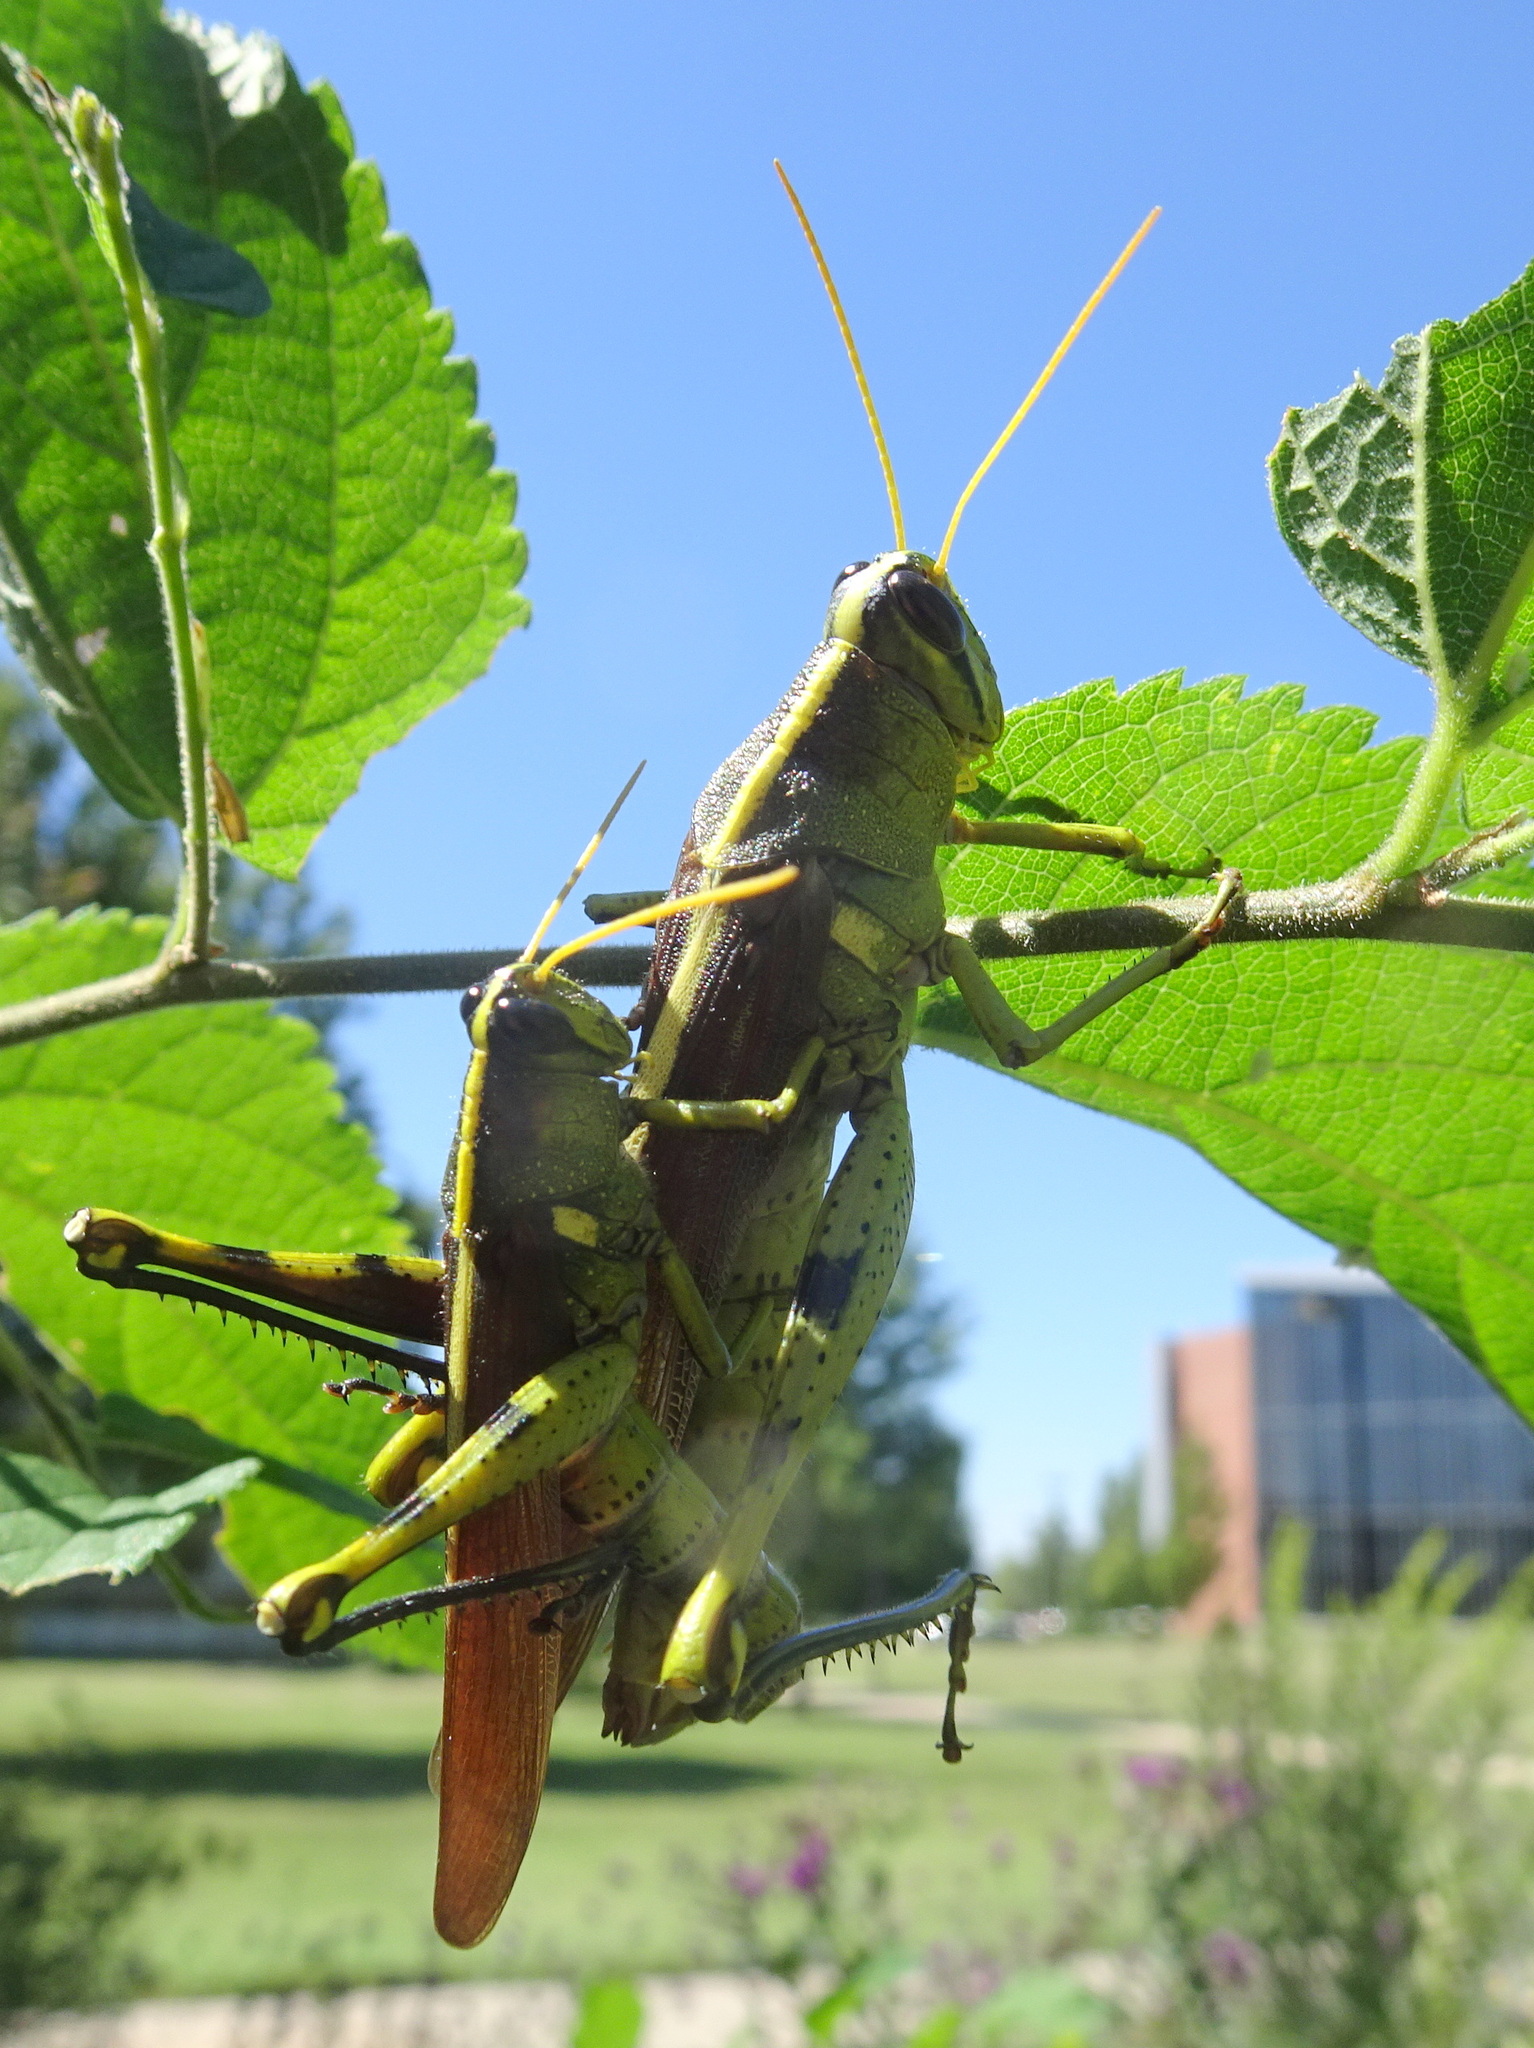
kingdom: Animalia
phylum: Arthropoda
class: Insecta
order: Orthoptera
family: Acrididae
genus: Schistocerca
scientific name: Schistocerca obscura
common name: Obscure bird grasshopper
